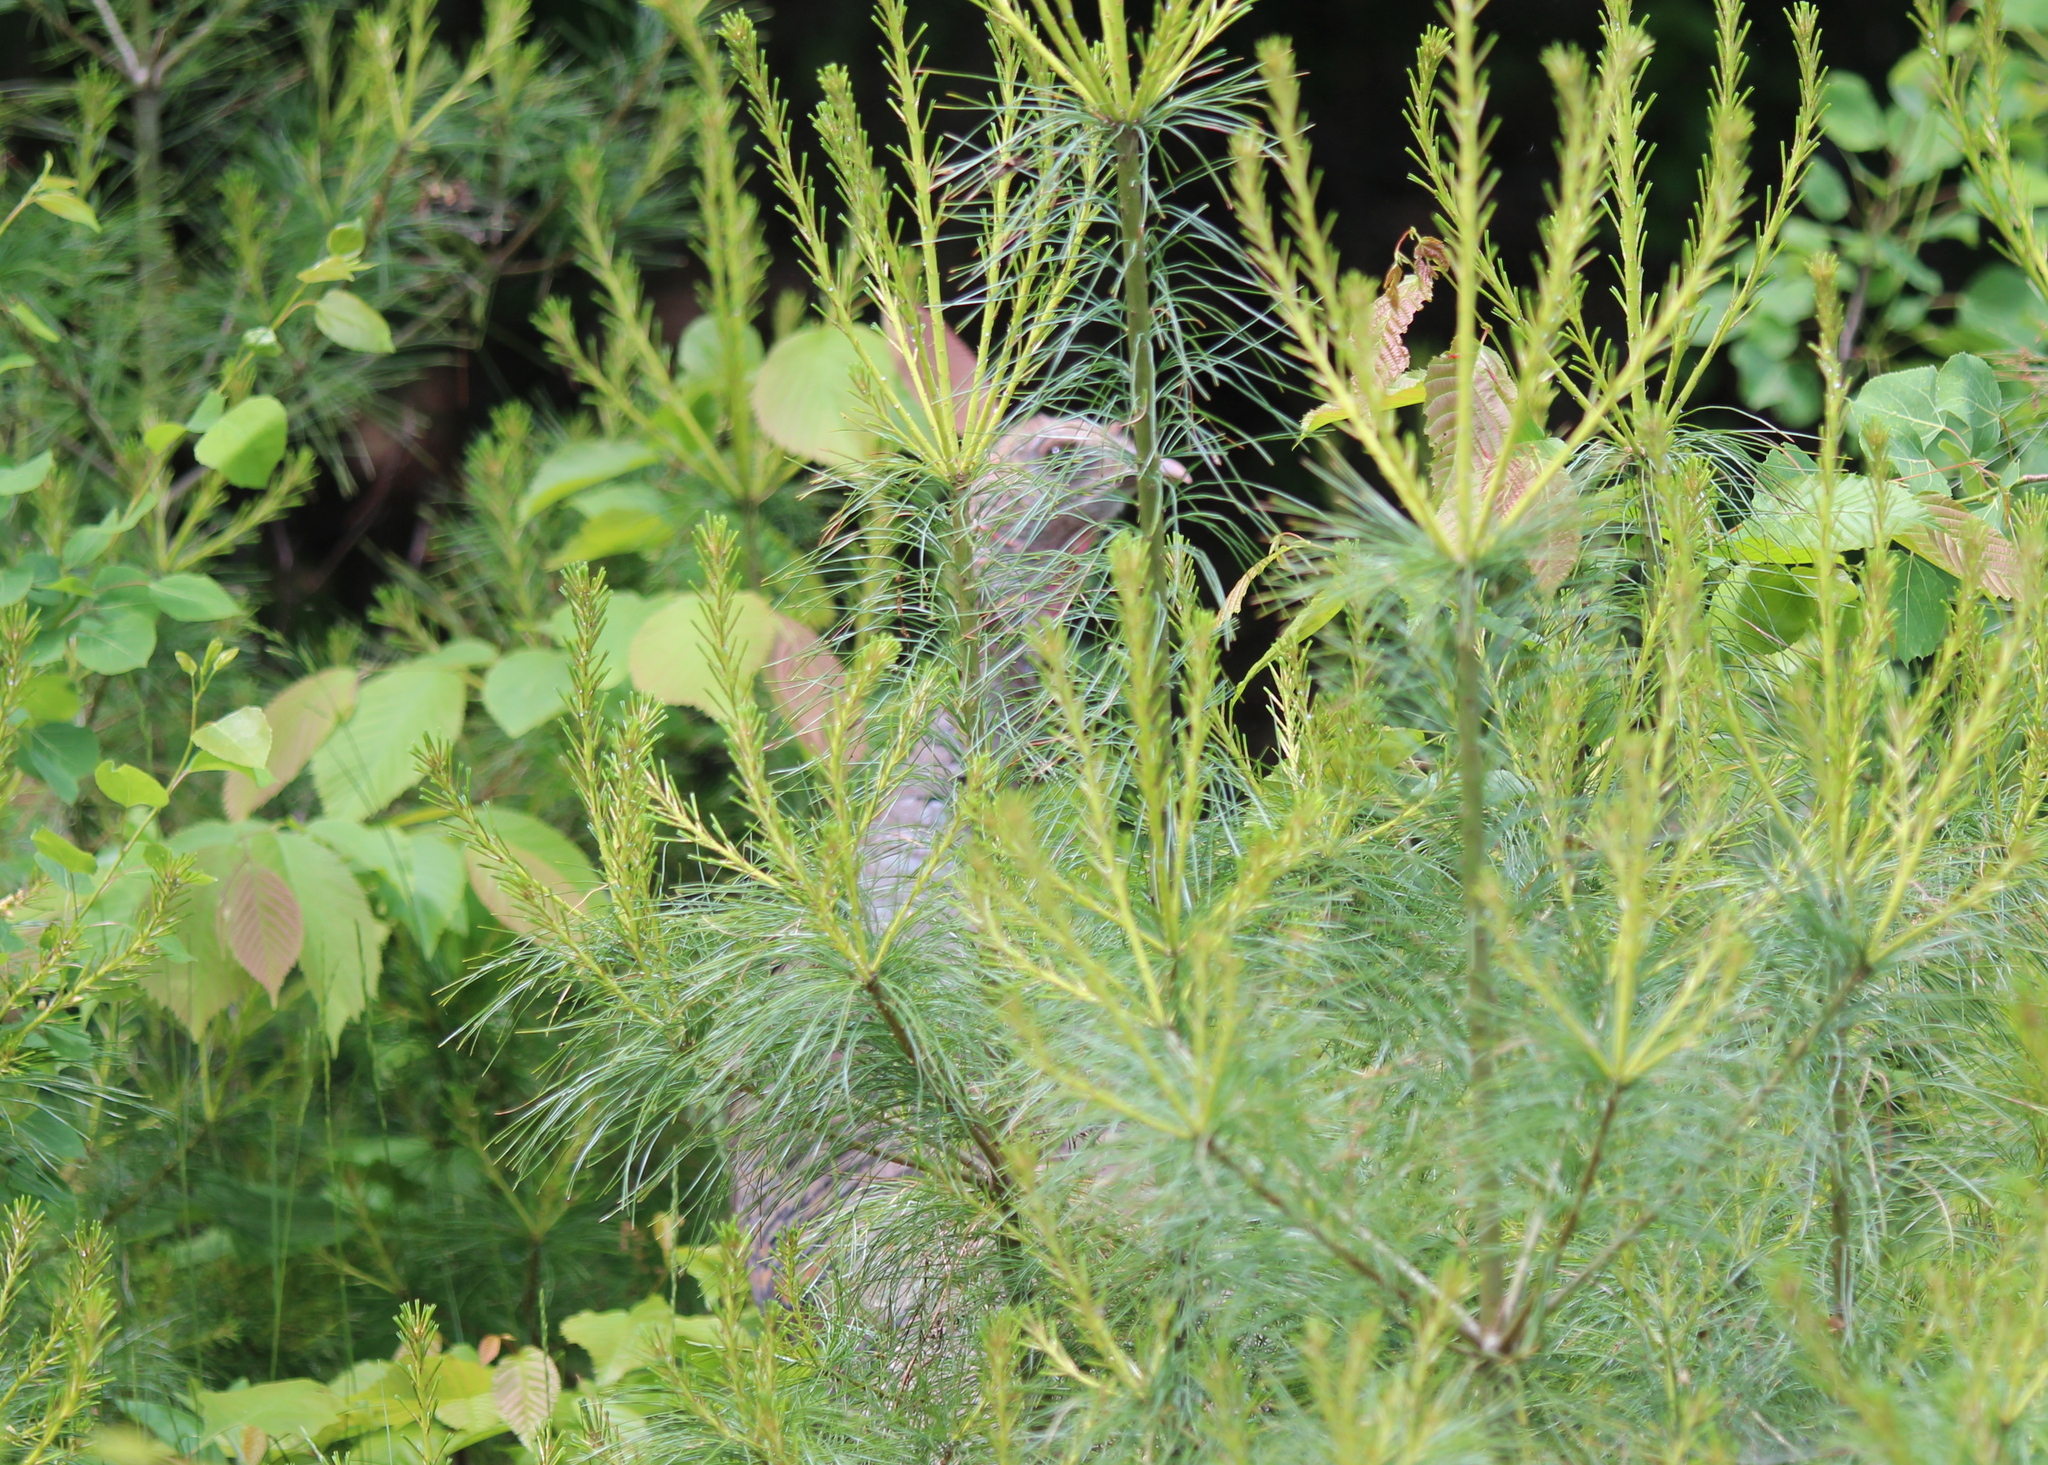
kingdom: Animalia
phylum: Chordata
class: Aves
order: Galliformes
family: Phasianidae
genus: Meleagris
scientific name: Meleagris gallopavo
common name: Wild turkey
